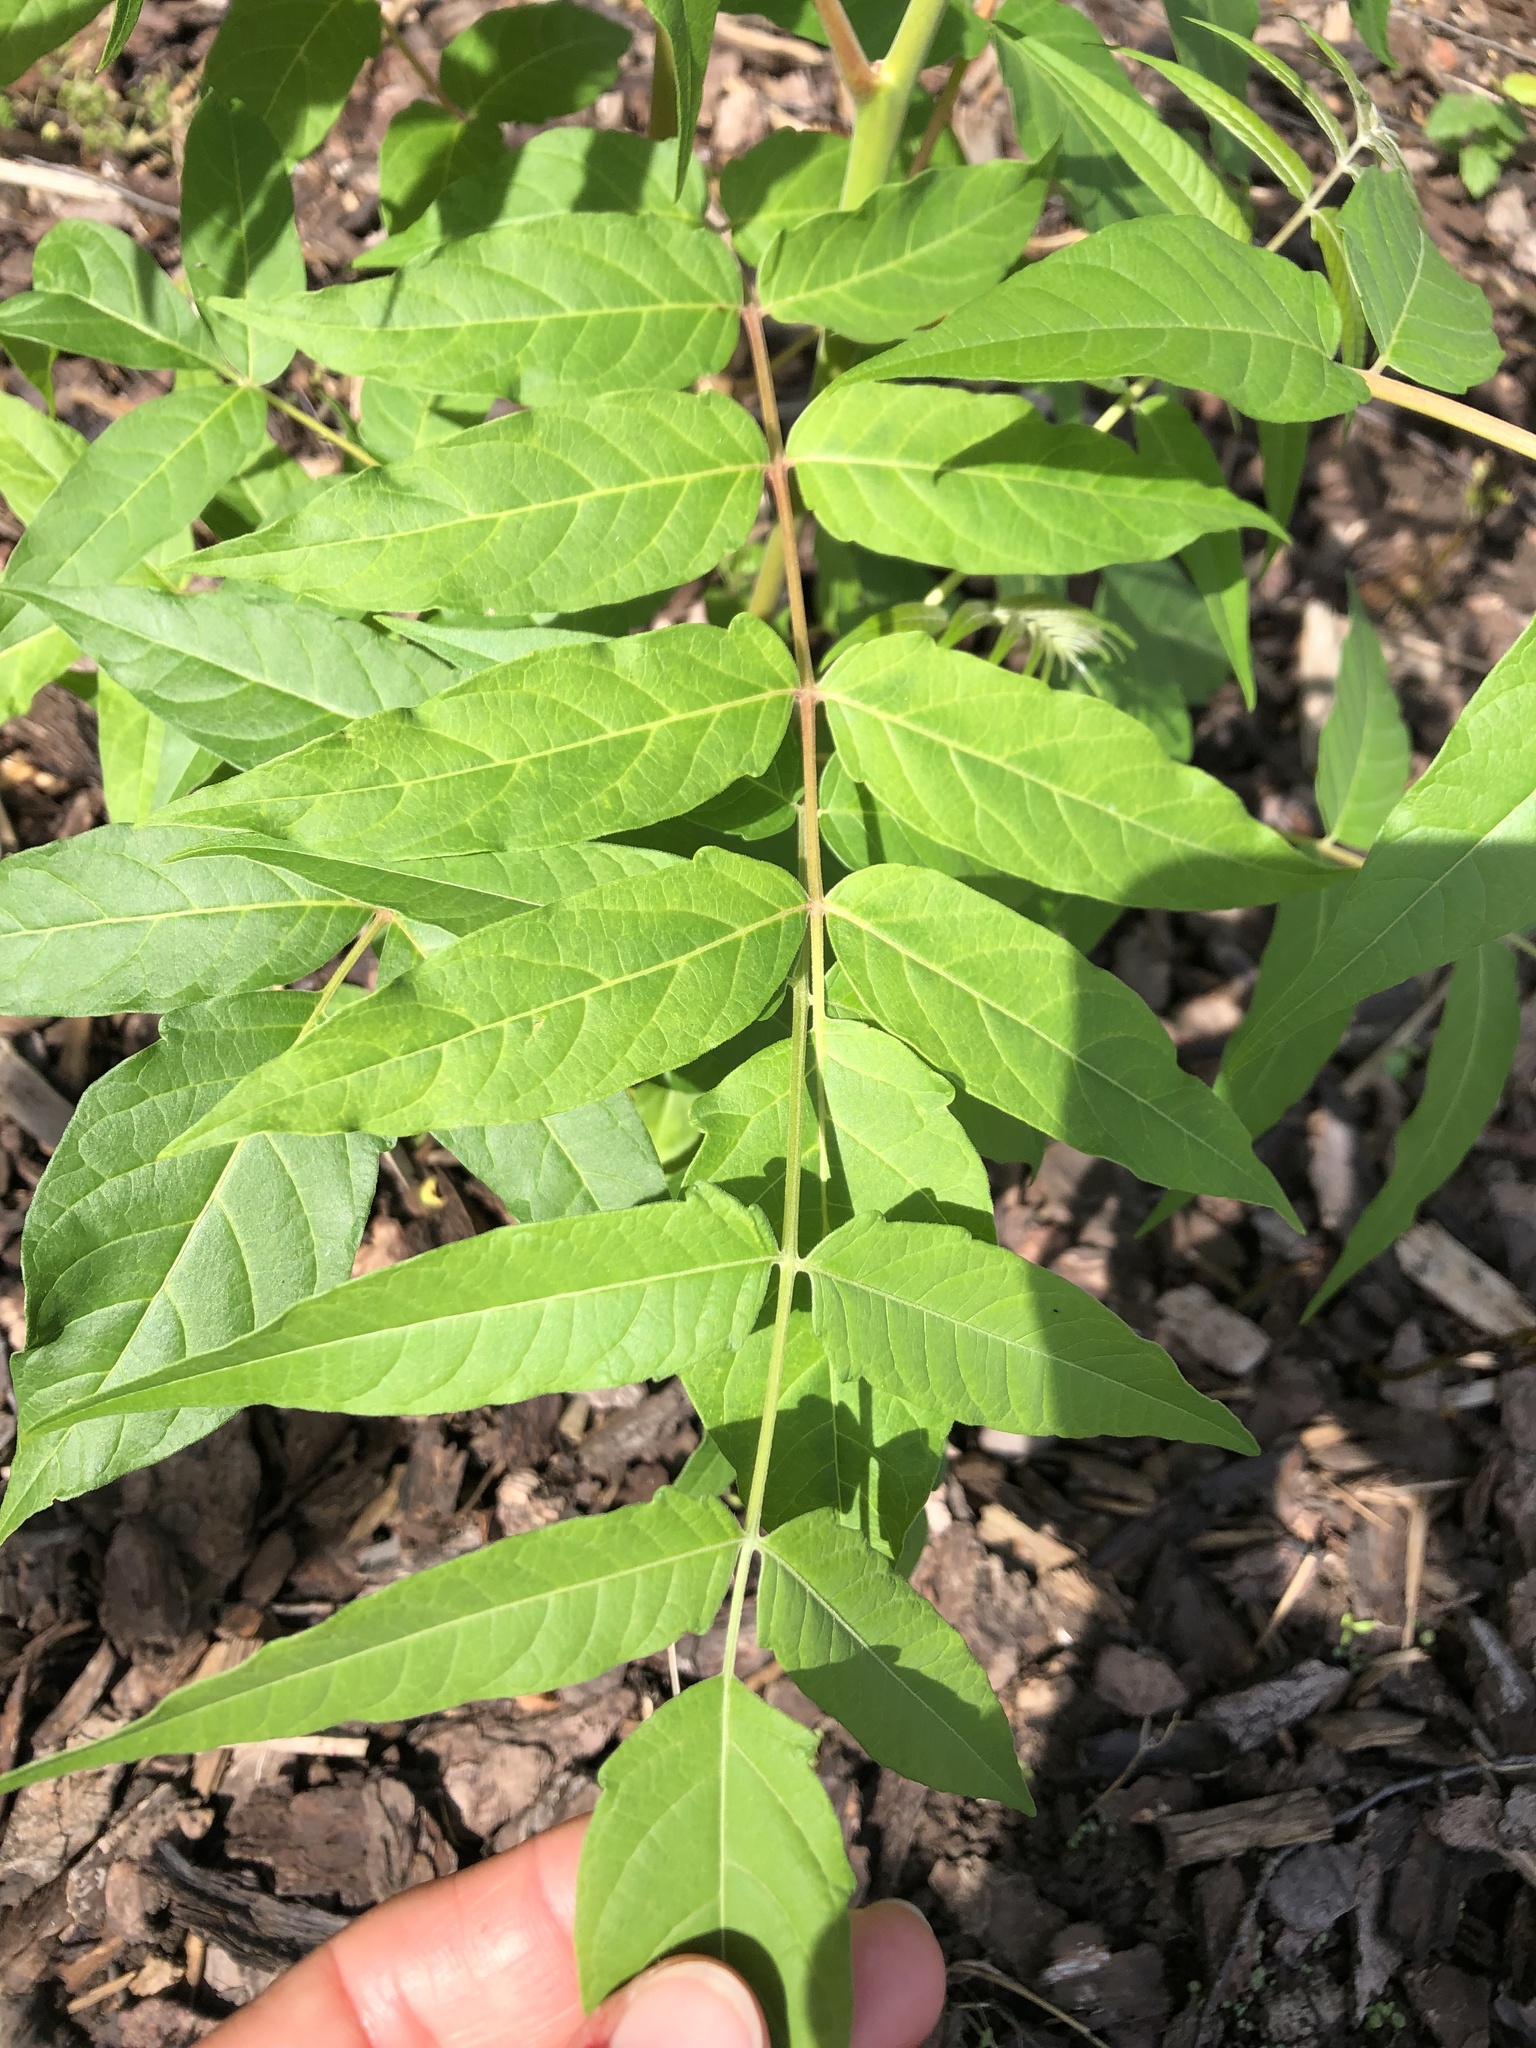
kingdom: Plantae
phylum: Tracheophyta
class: Magnoliopsida
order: Sapindales
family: Simaroubaceae
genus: Ailanthus
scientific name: Ailanthus altissima
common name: Tree-of-heaven
